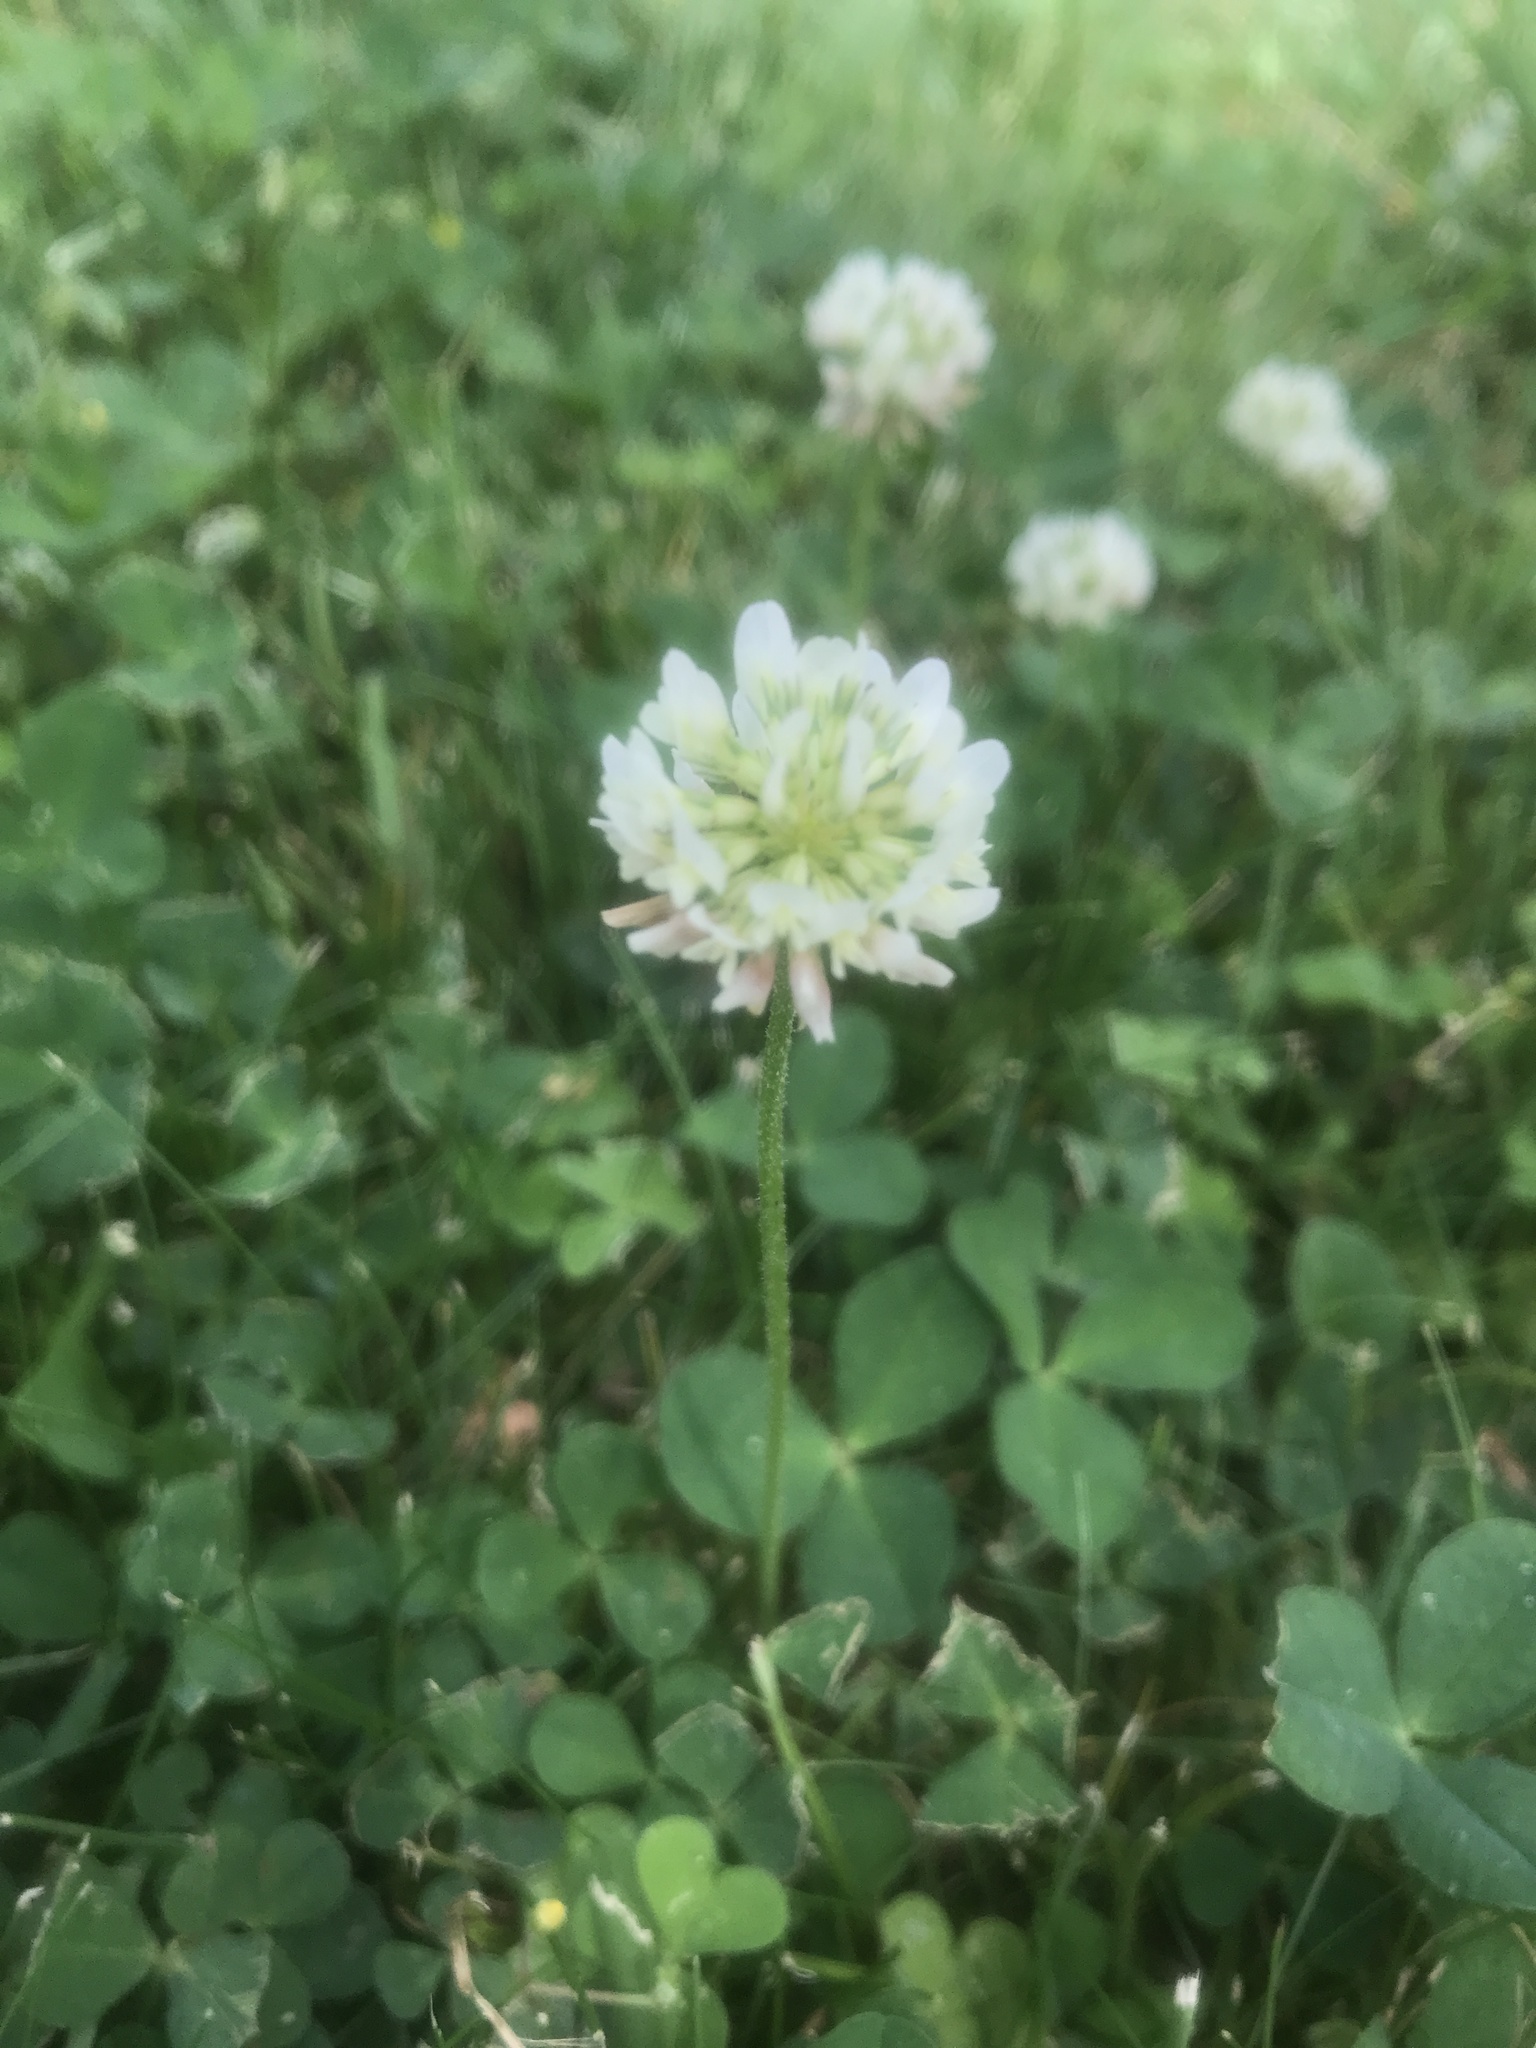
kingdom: Plantae
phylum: Tracheophyta
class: Magnoliopsida
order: Fabales
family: Fabaceae
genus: Trifolium
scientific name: Trifolium repens
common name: White clover
